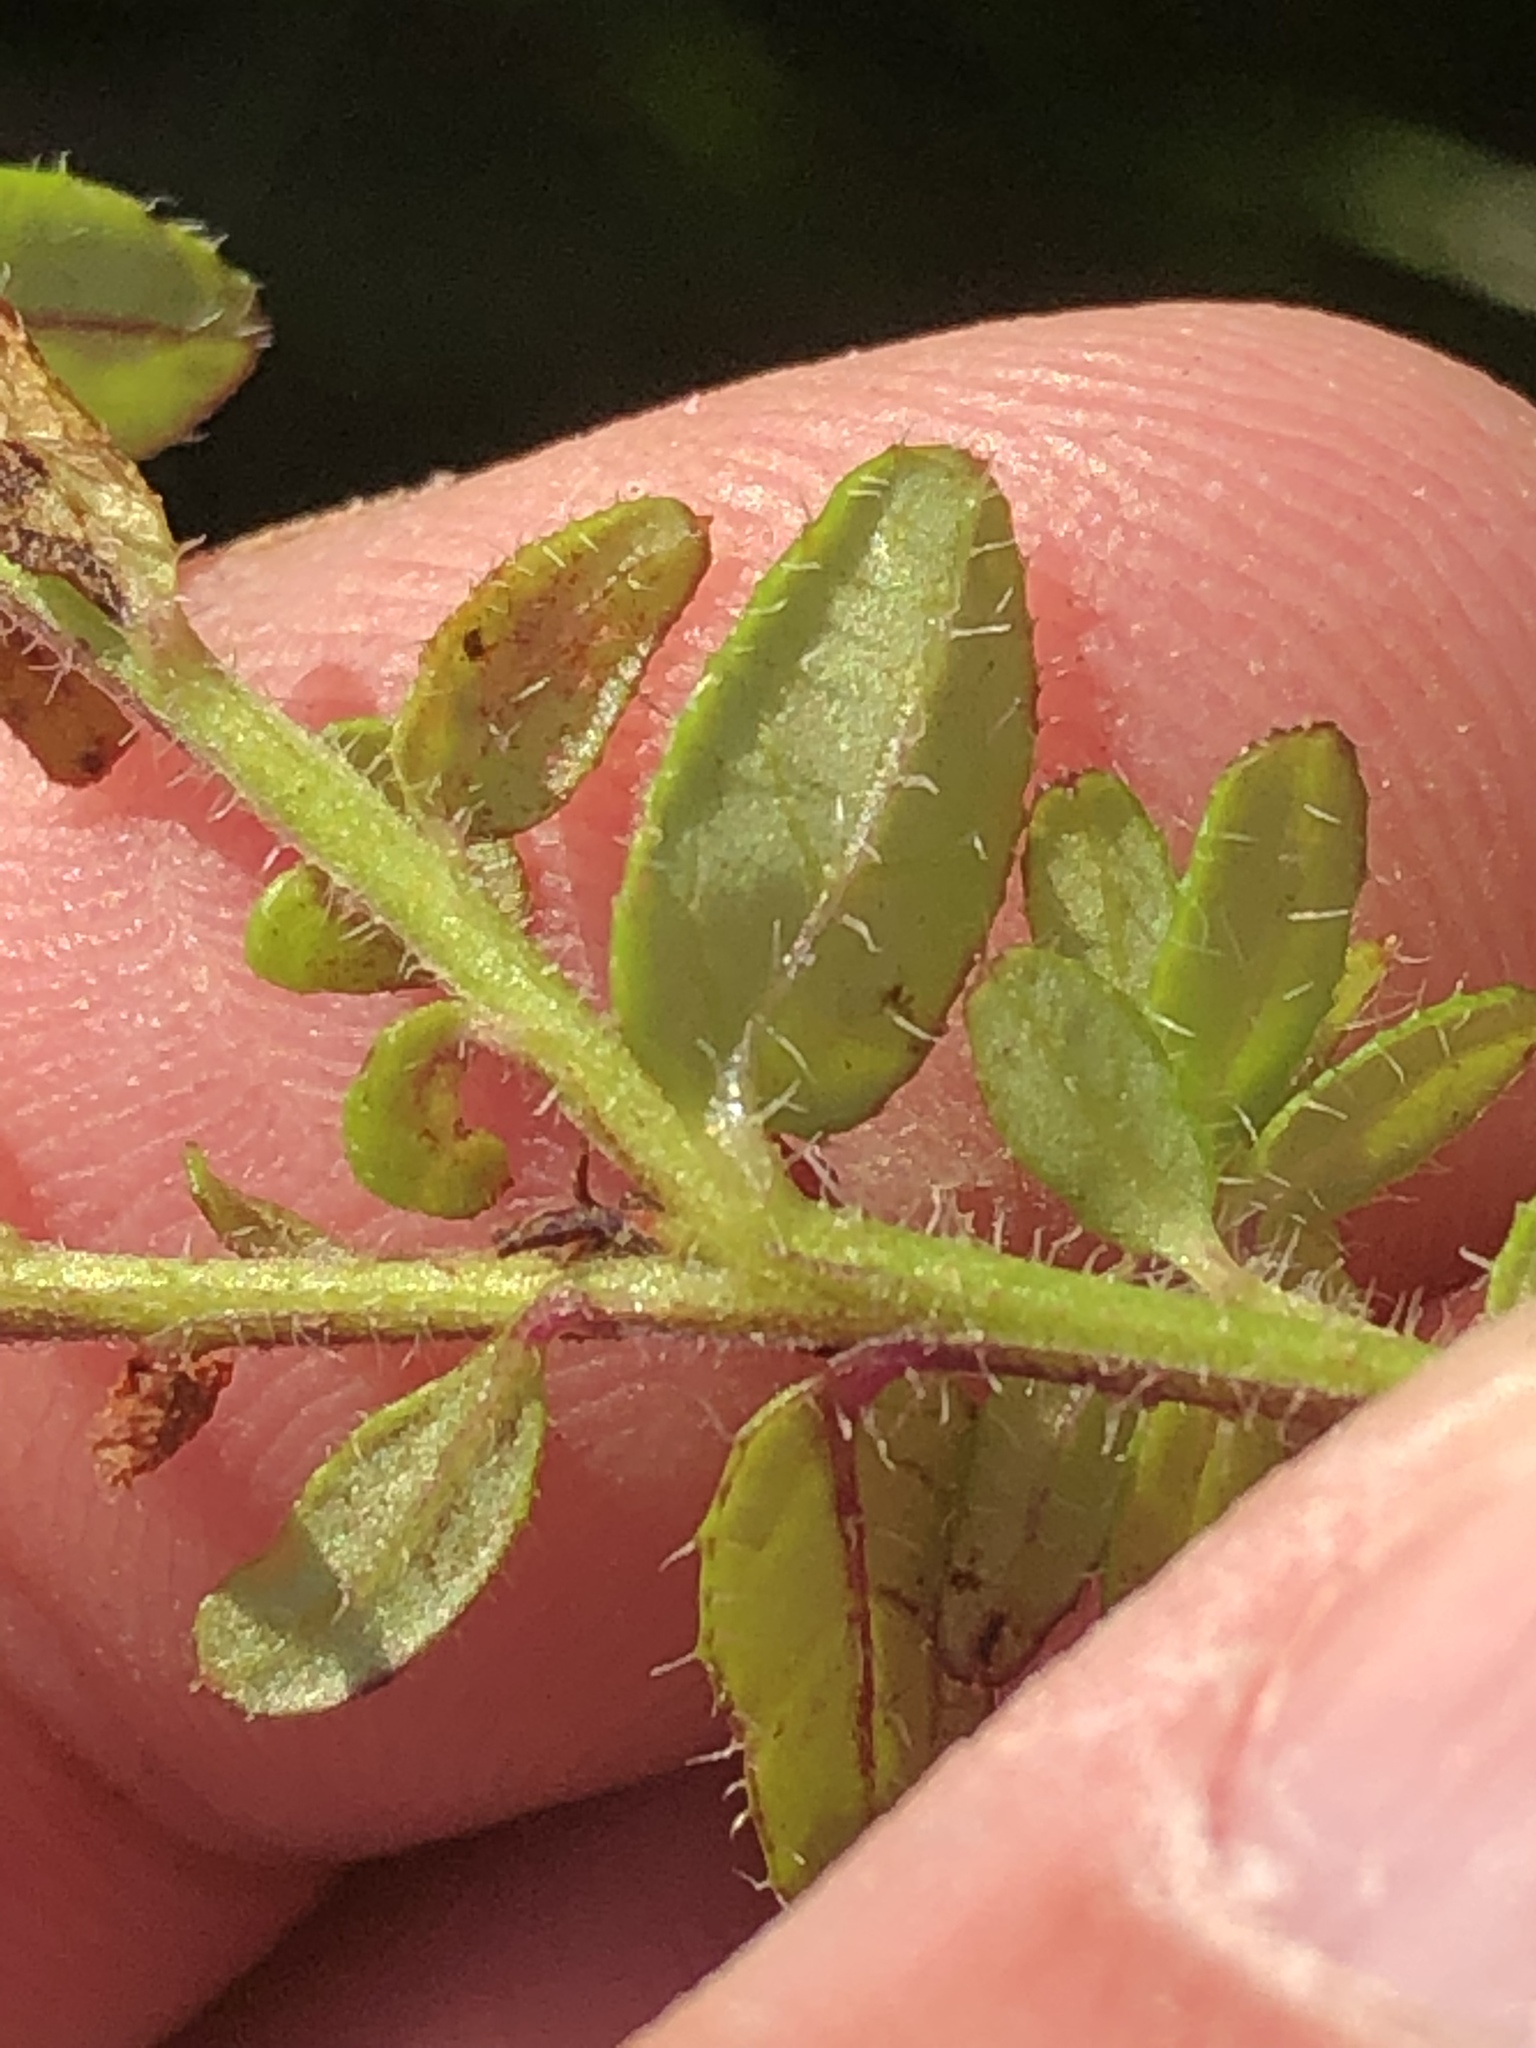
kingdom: Plantae
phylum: Tracheophyta
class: Magnoliopsida
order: Asterales
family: Campanulaceae
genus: Lobelia
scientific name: Lobelia neglecta
